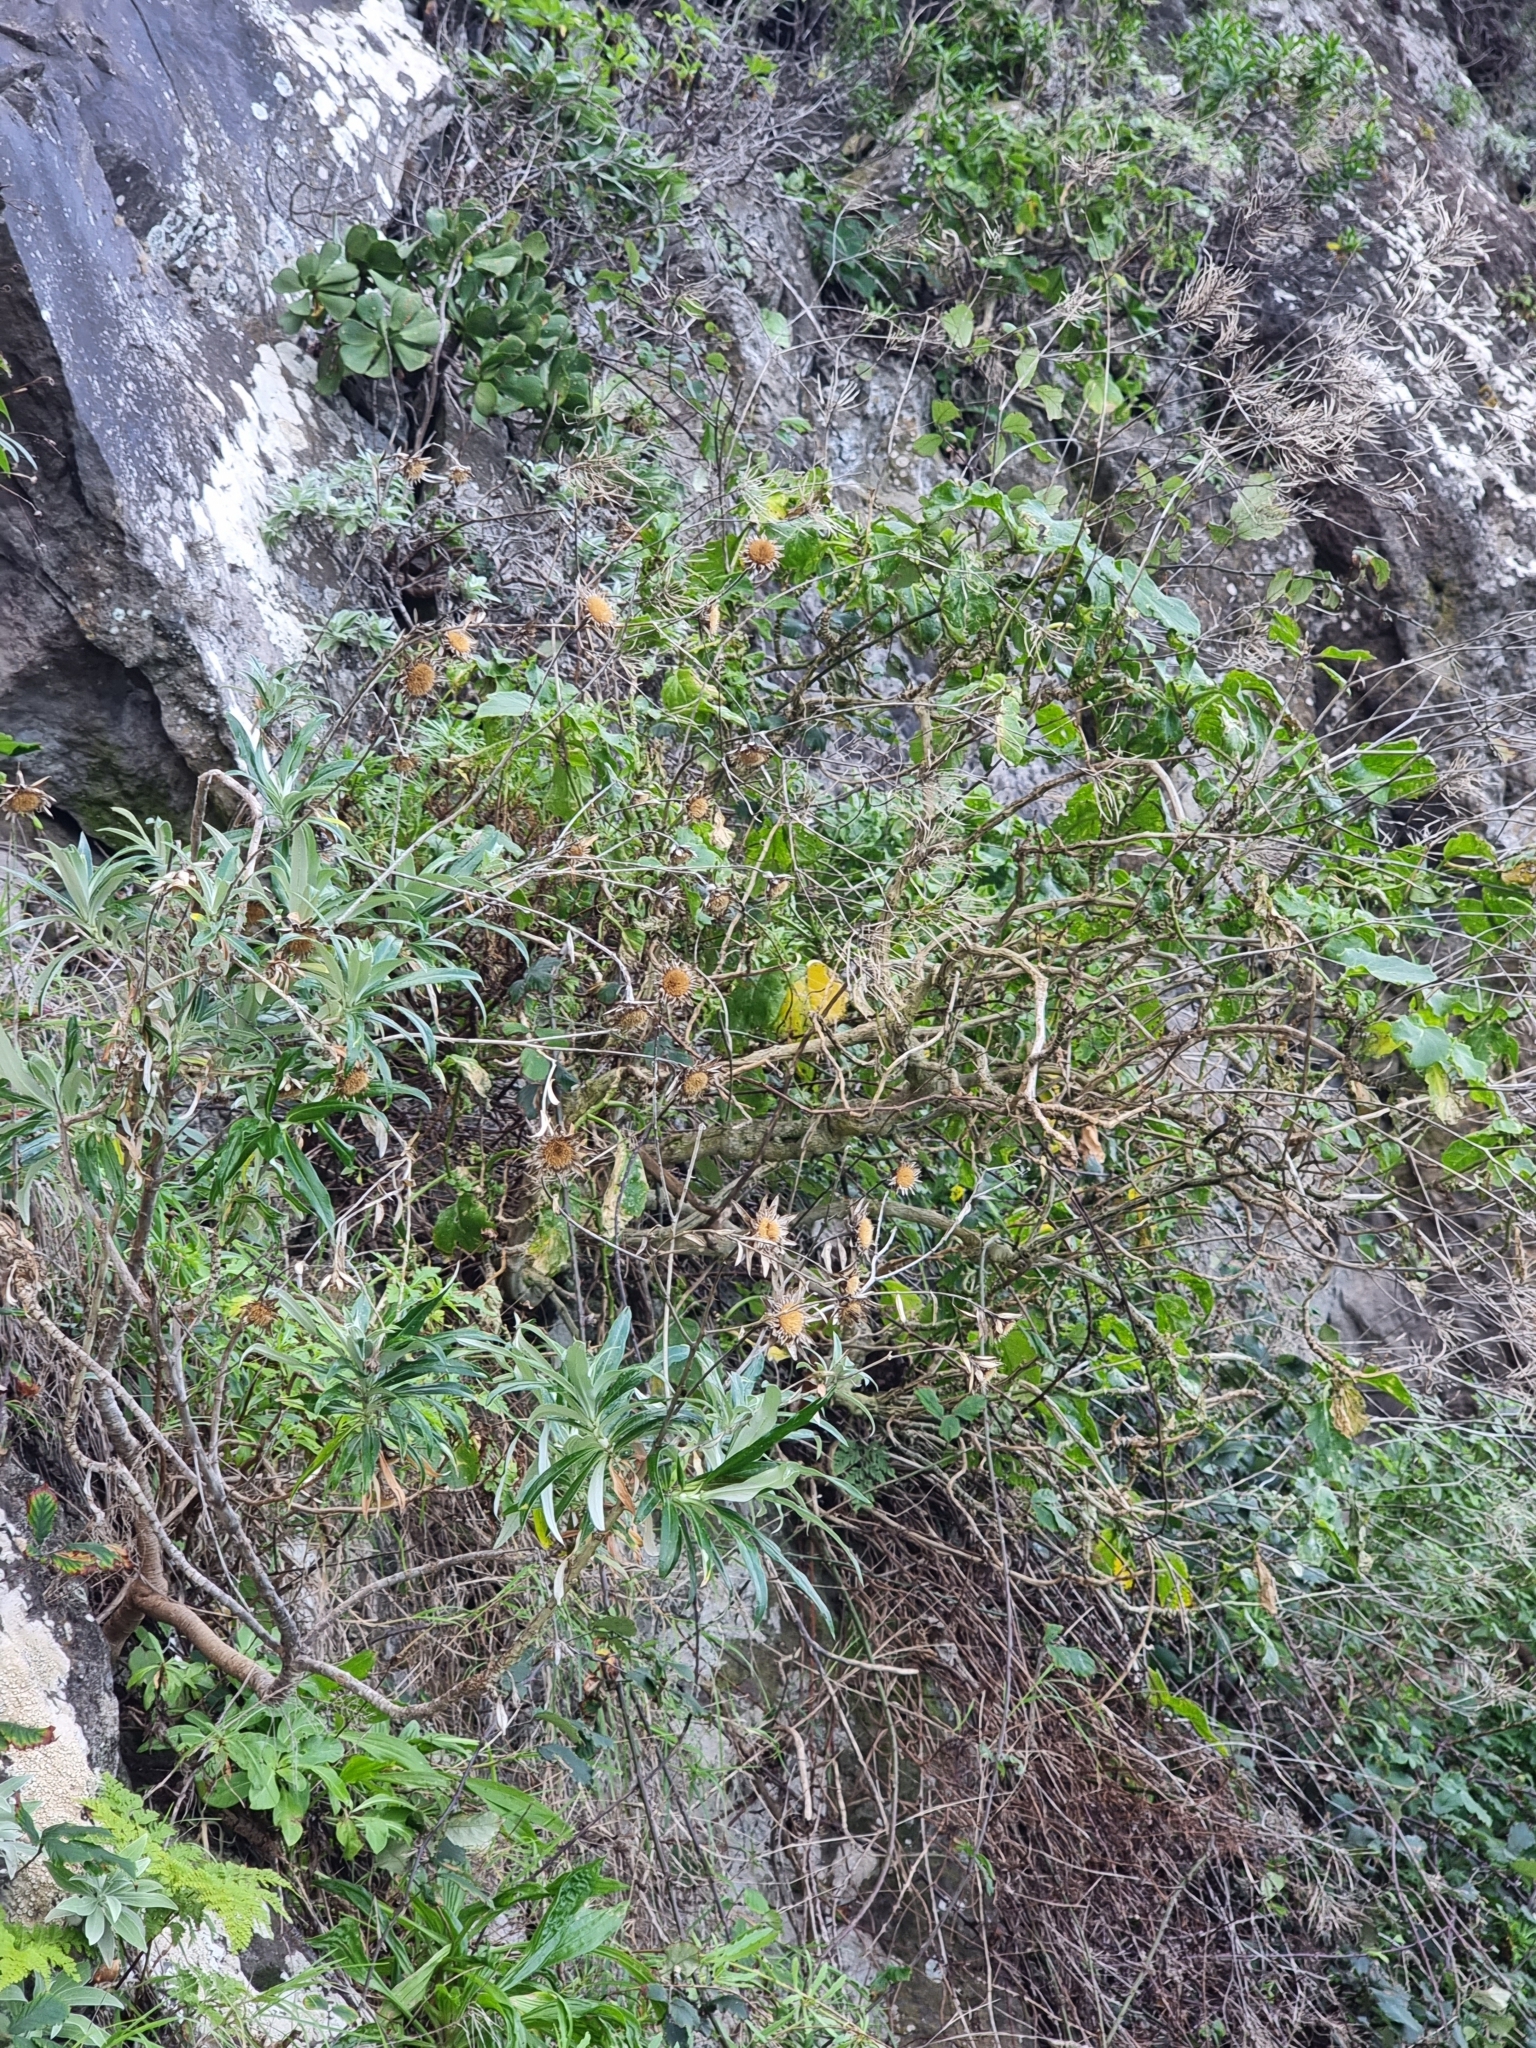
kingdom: Plantae
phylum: Tracheophyta
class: Magnoliopsida
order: Asterales
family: Asteraceae
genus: Carlina
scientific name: Carlina salicifolia
